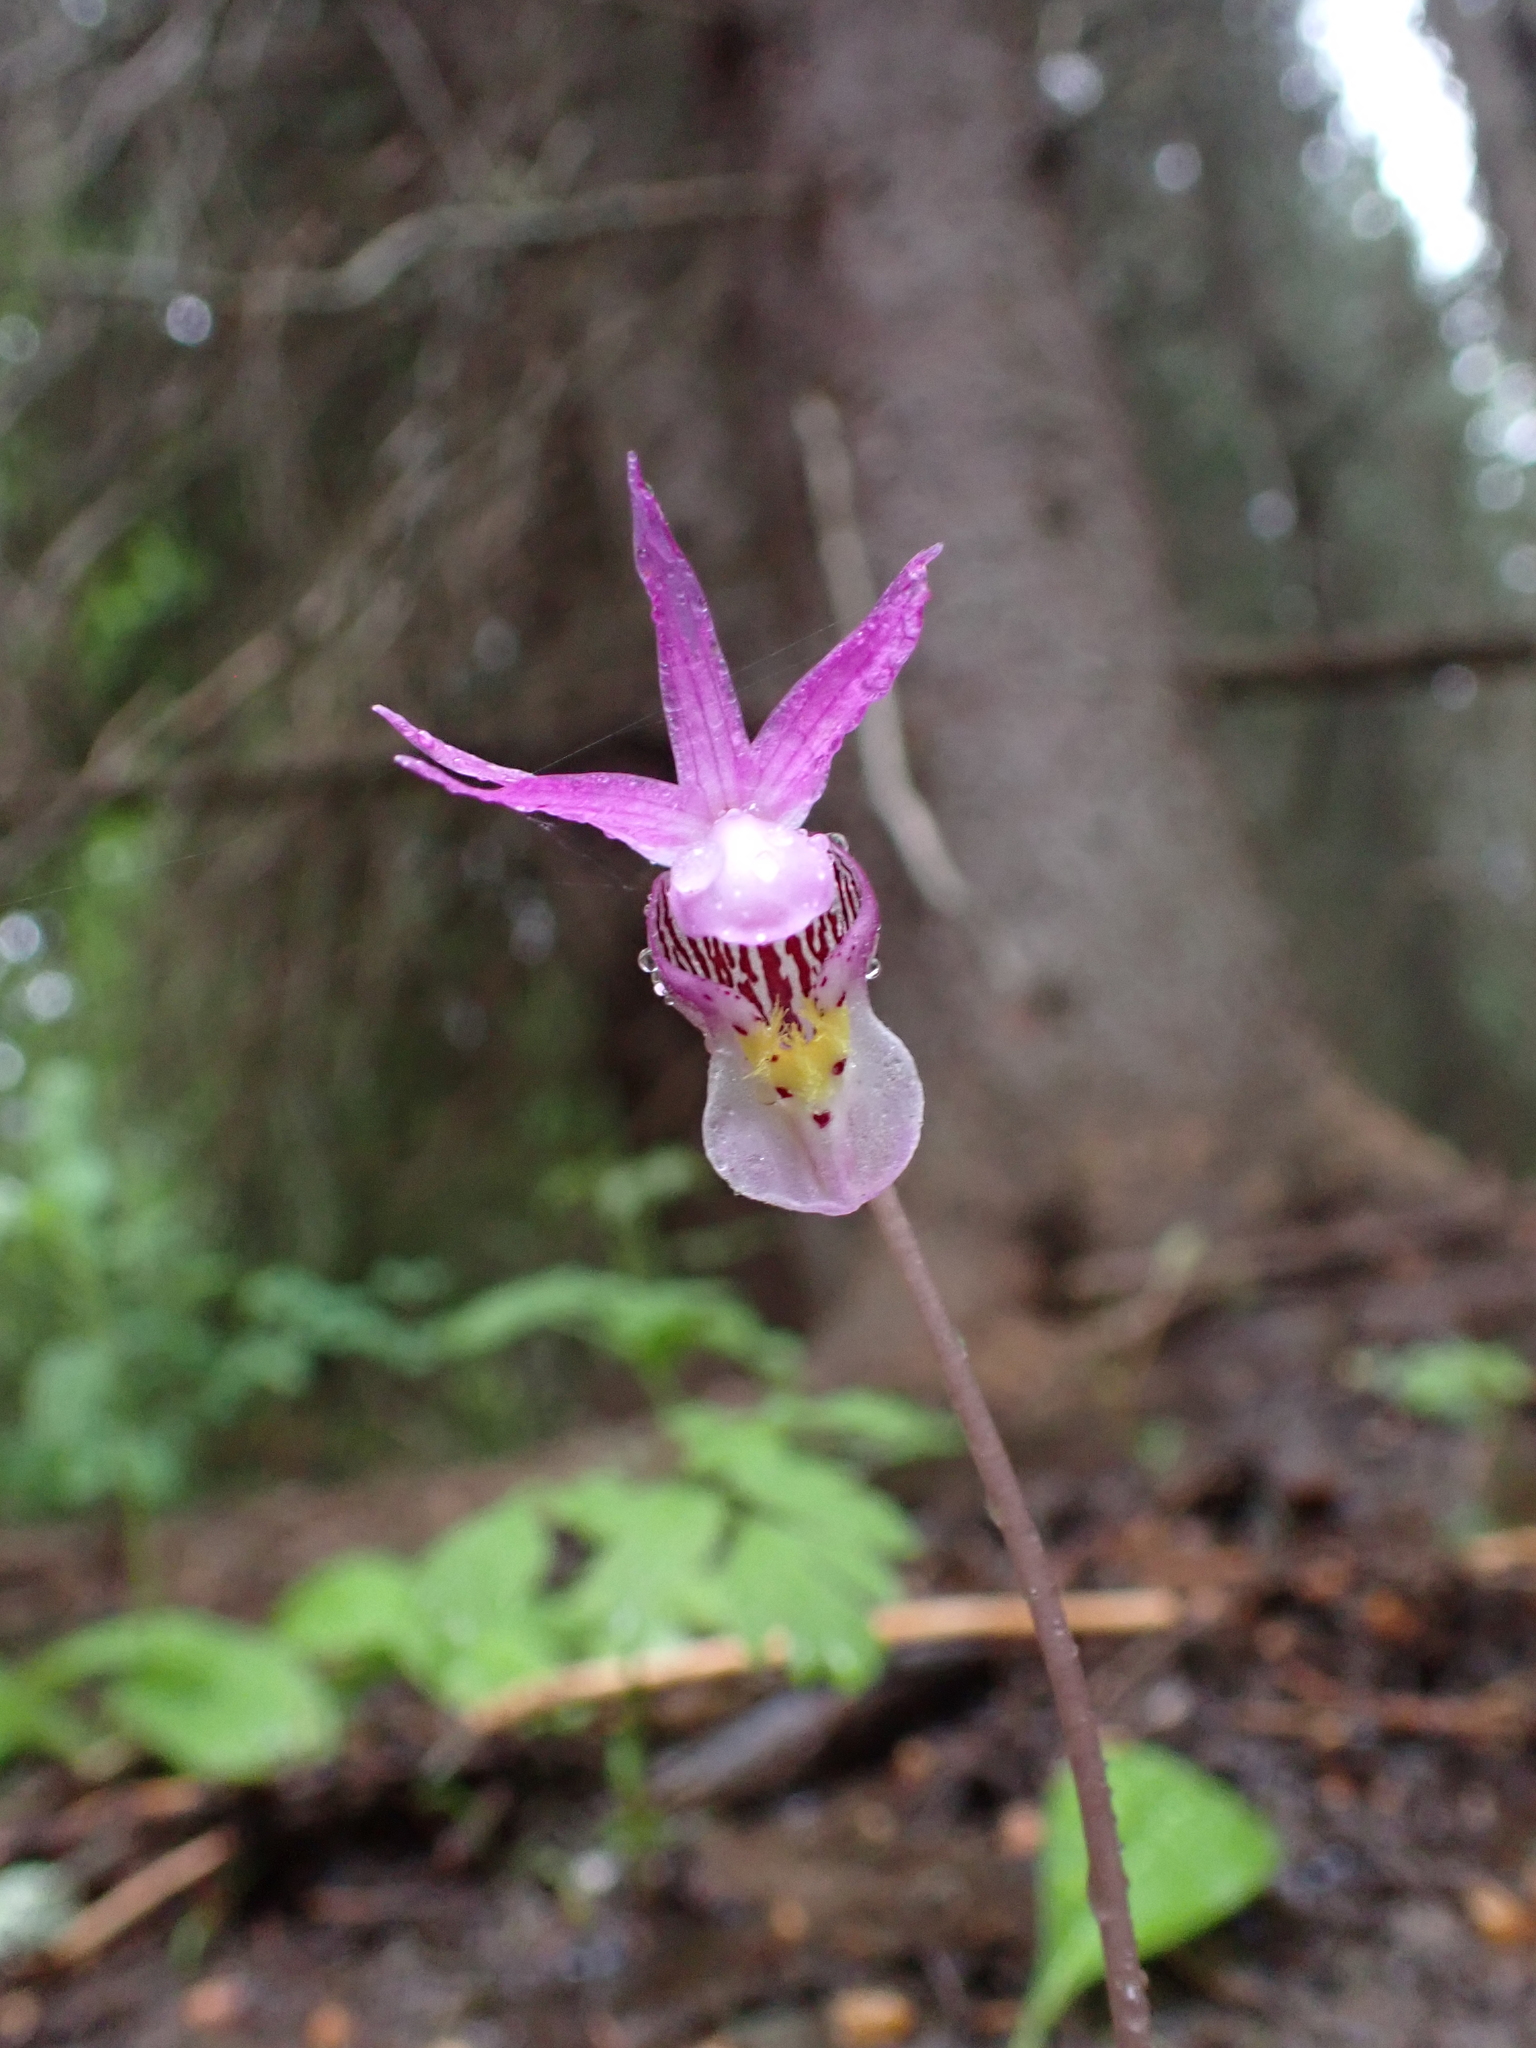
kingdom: Plantae
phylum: Tracheophyta
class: Liliopsida
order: Asparagales
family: Orchidaceae
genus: Calypso
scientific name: Calypso bulbosa
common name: Calypso
